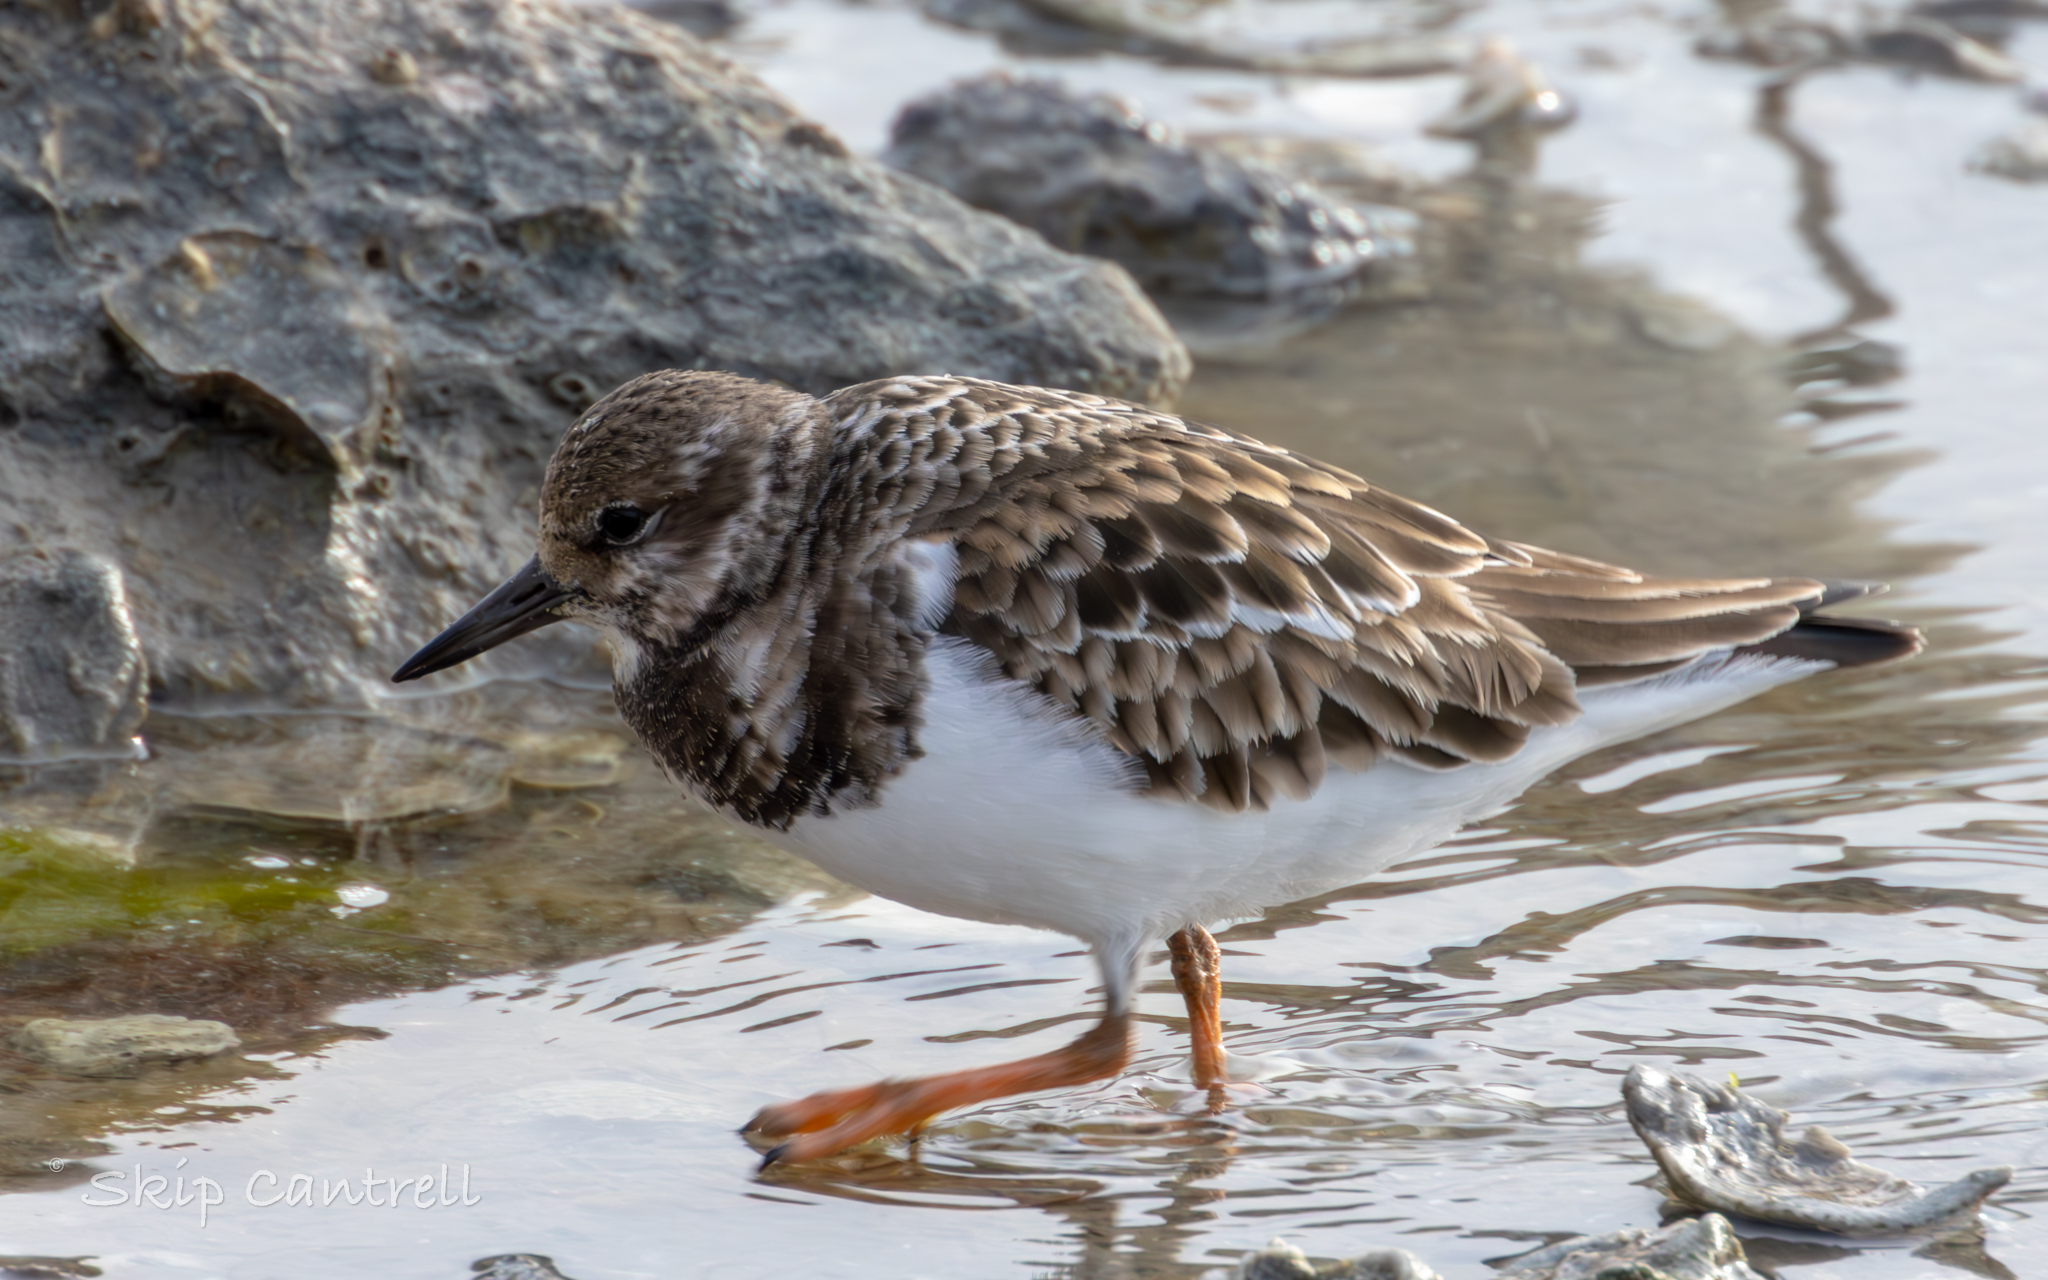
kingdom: Animalia
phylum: Chordata
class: Aves
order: Charadriiformes
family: Scolopacidae
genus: Arenaria
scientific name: Arenaria interpres
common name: Ruddy turnstone
